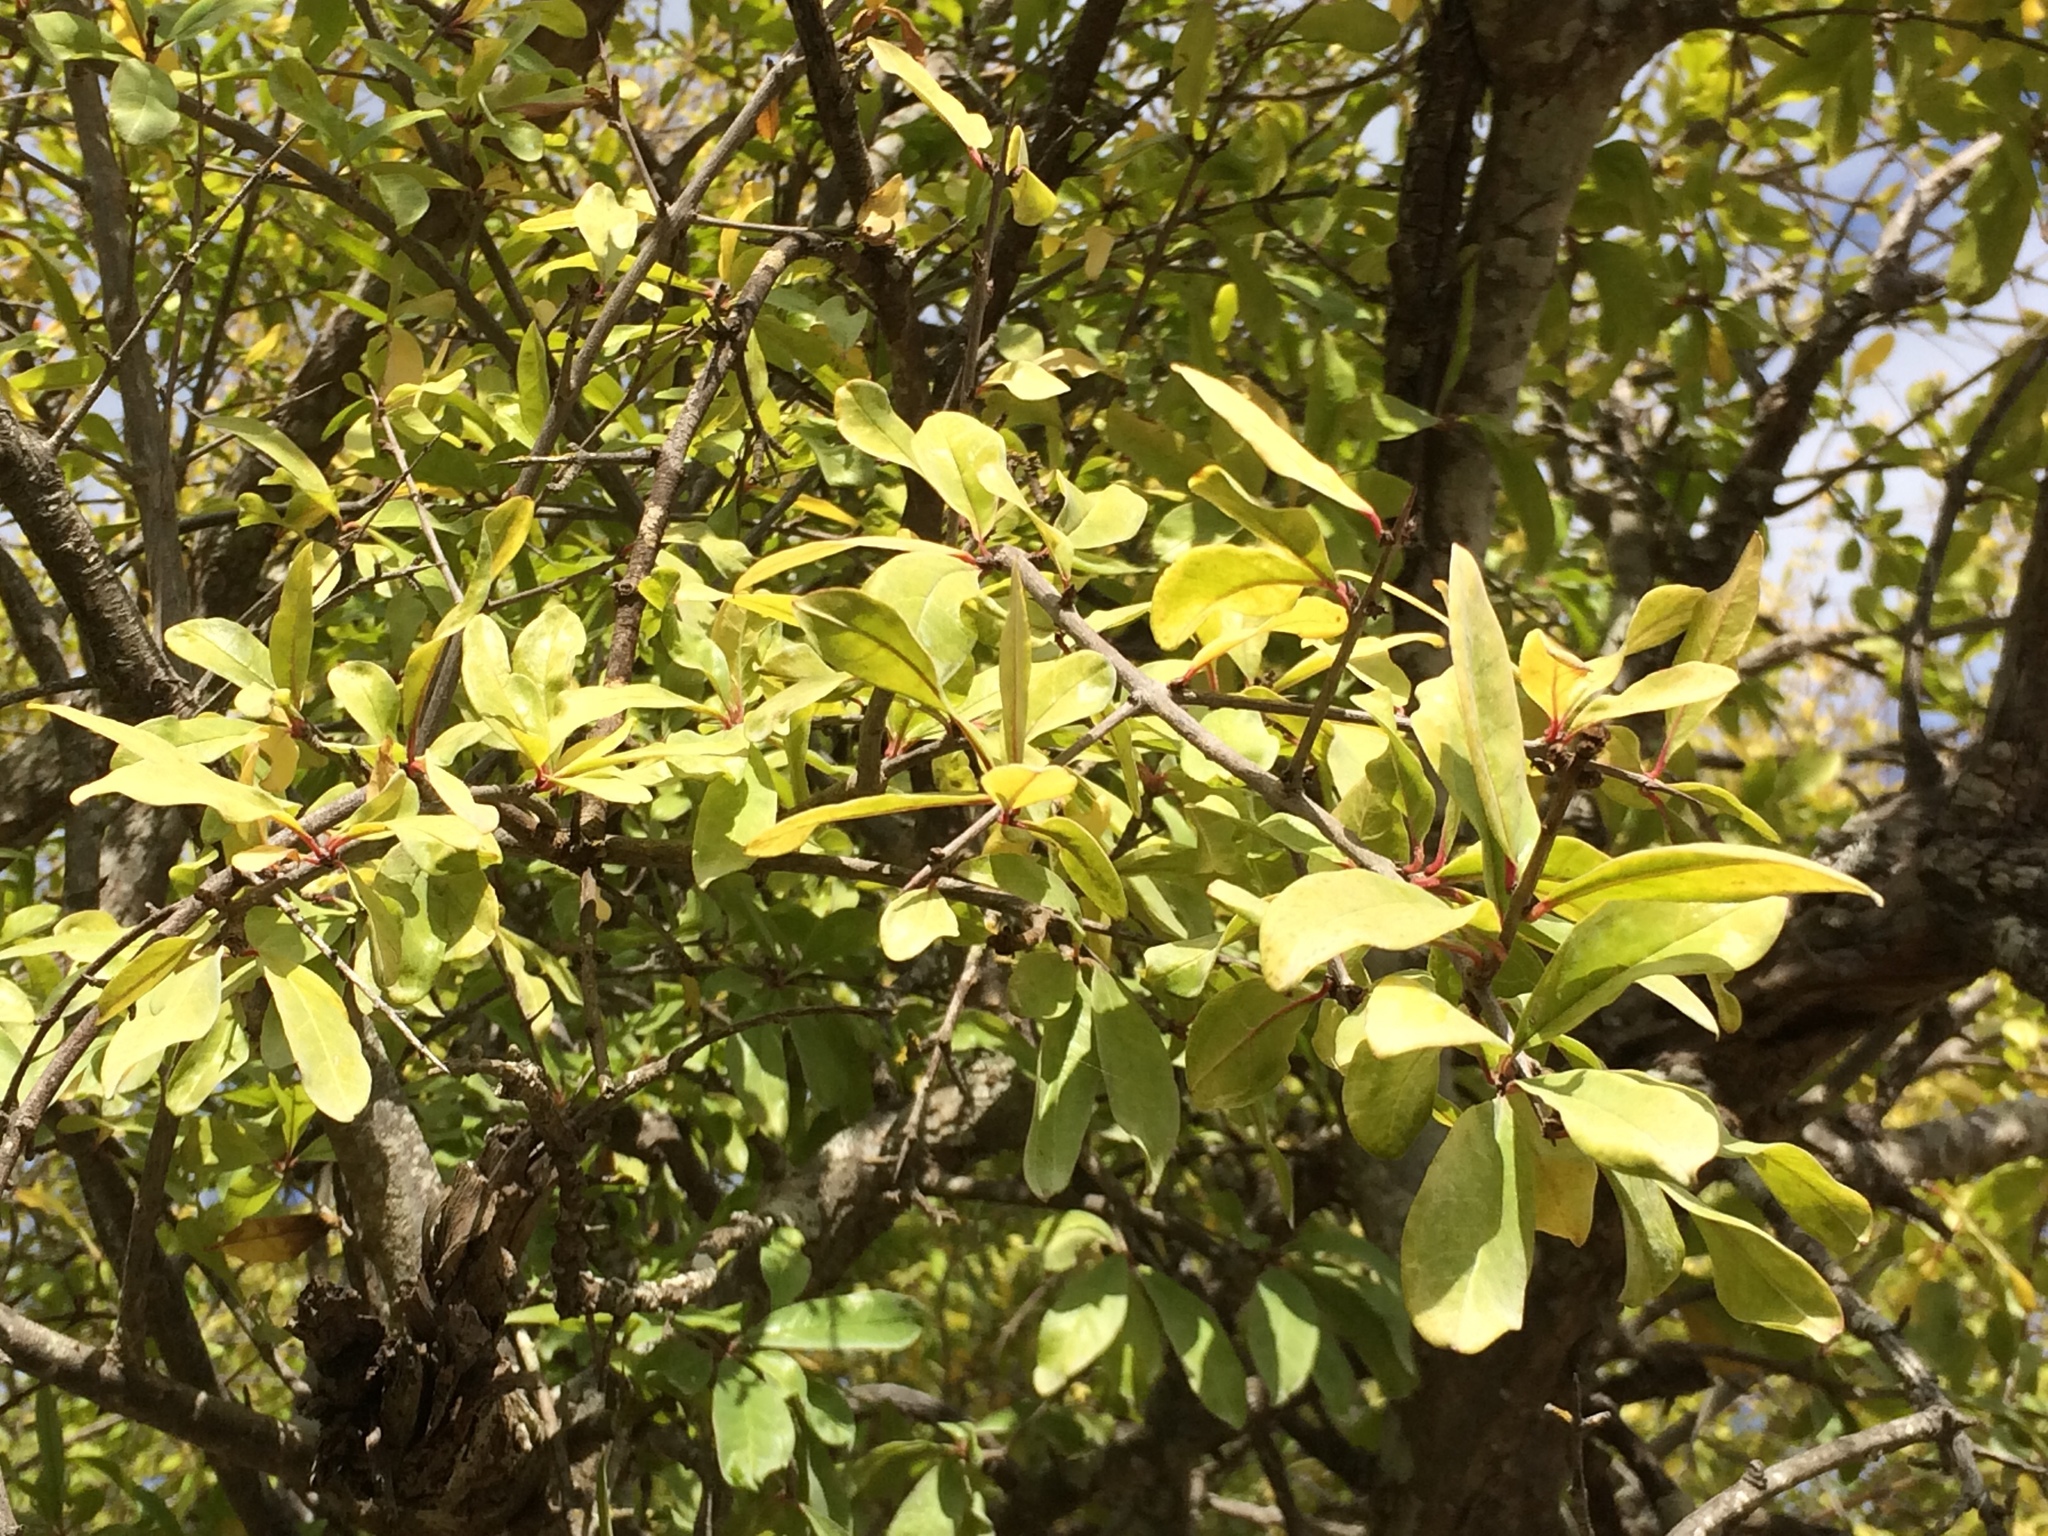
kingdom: Plantae
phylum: Tracheophyta
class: Magnoliopsida
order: Myrtales
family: Lythraceae
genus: Punica
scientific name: Punica granatum
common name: Pomegranate
